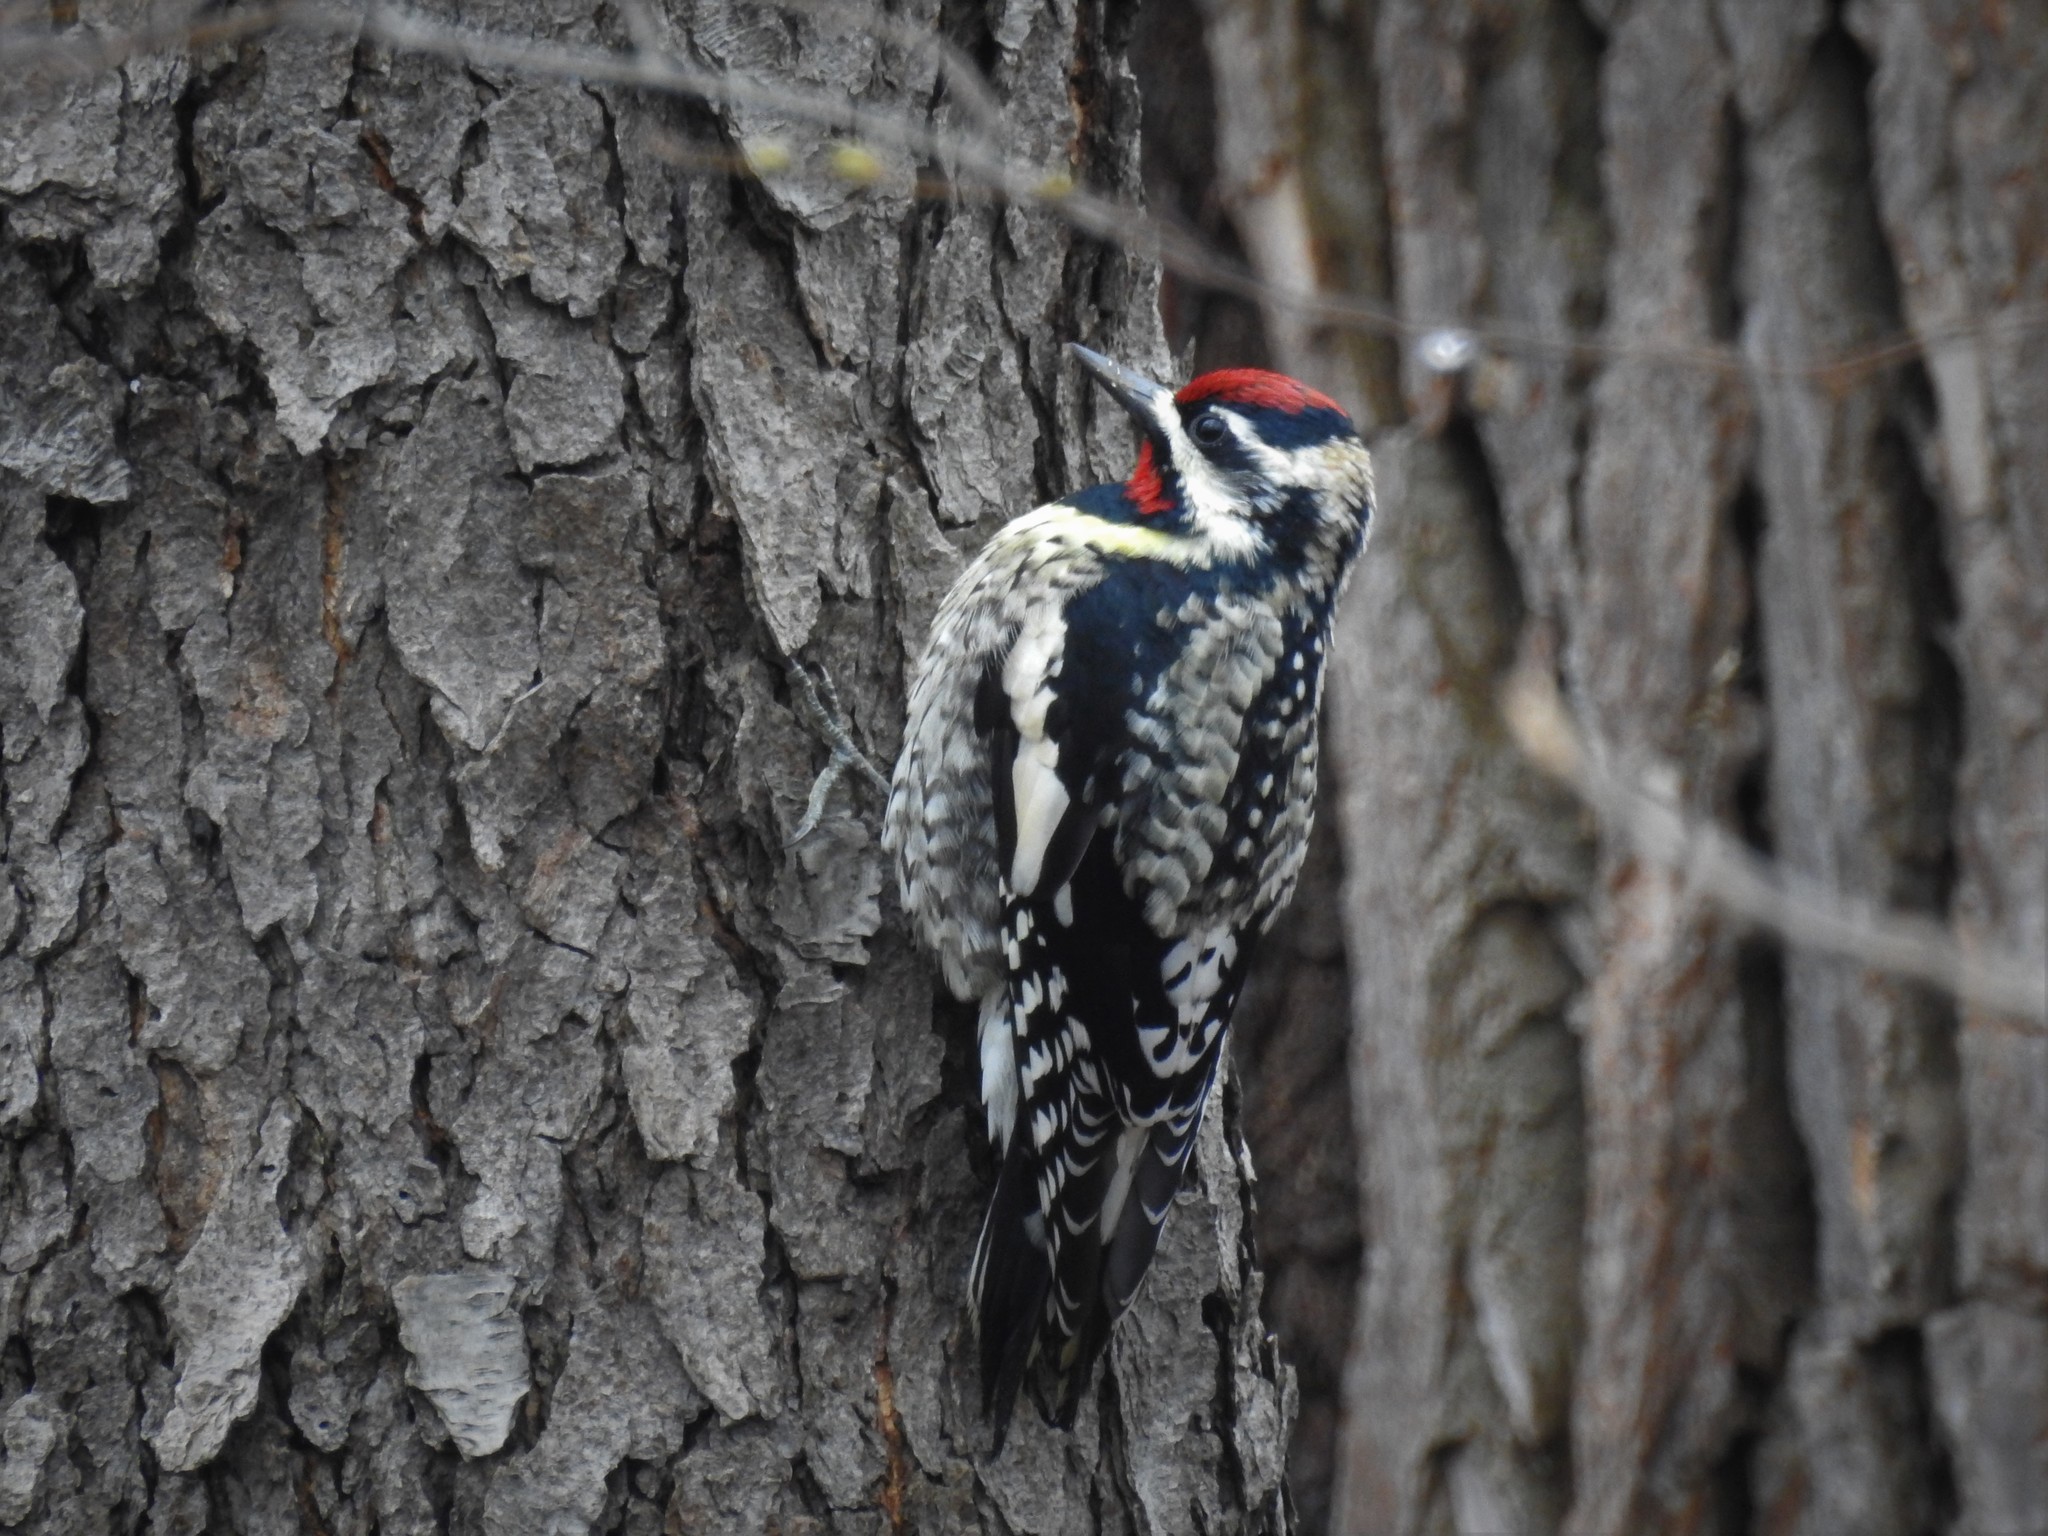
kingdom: Animalia
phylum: Chordata
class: Aves
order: Piciformes
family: Picidae
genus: Sphyrapicus
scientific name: Sphyrapicus varius
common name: Yellow-bellied sapsucker
